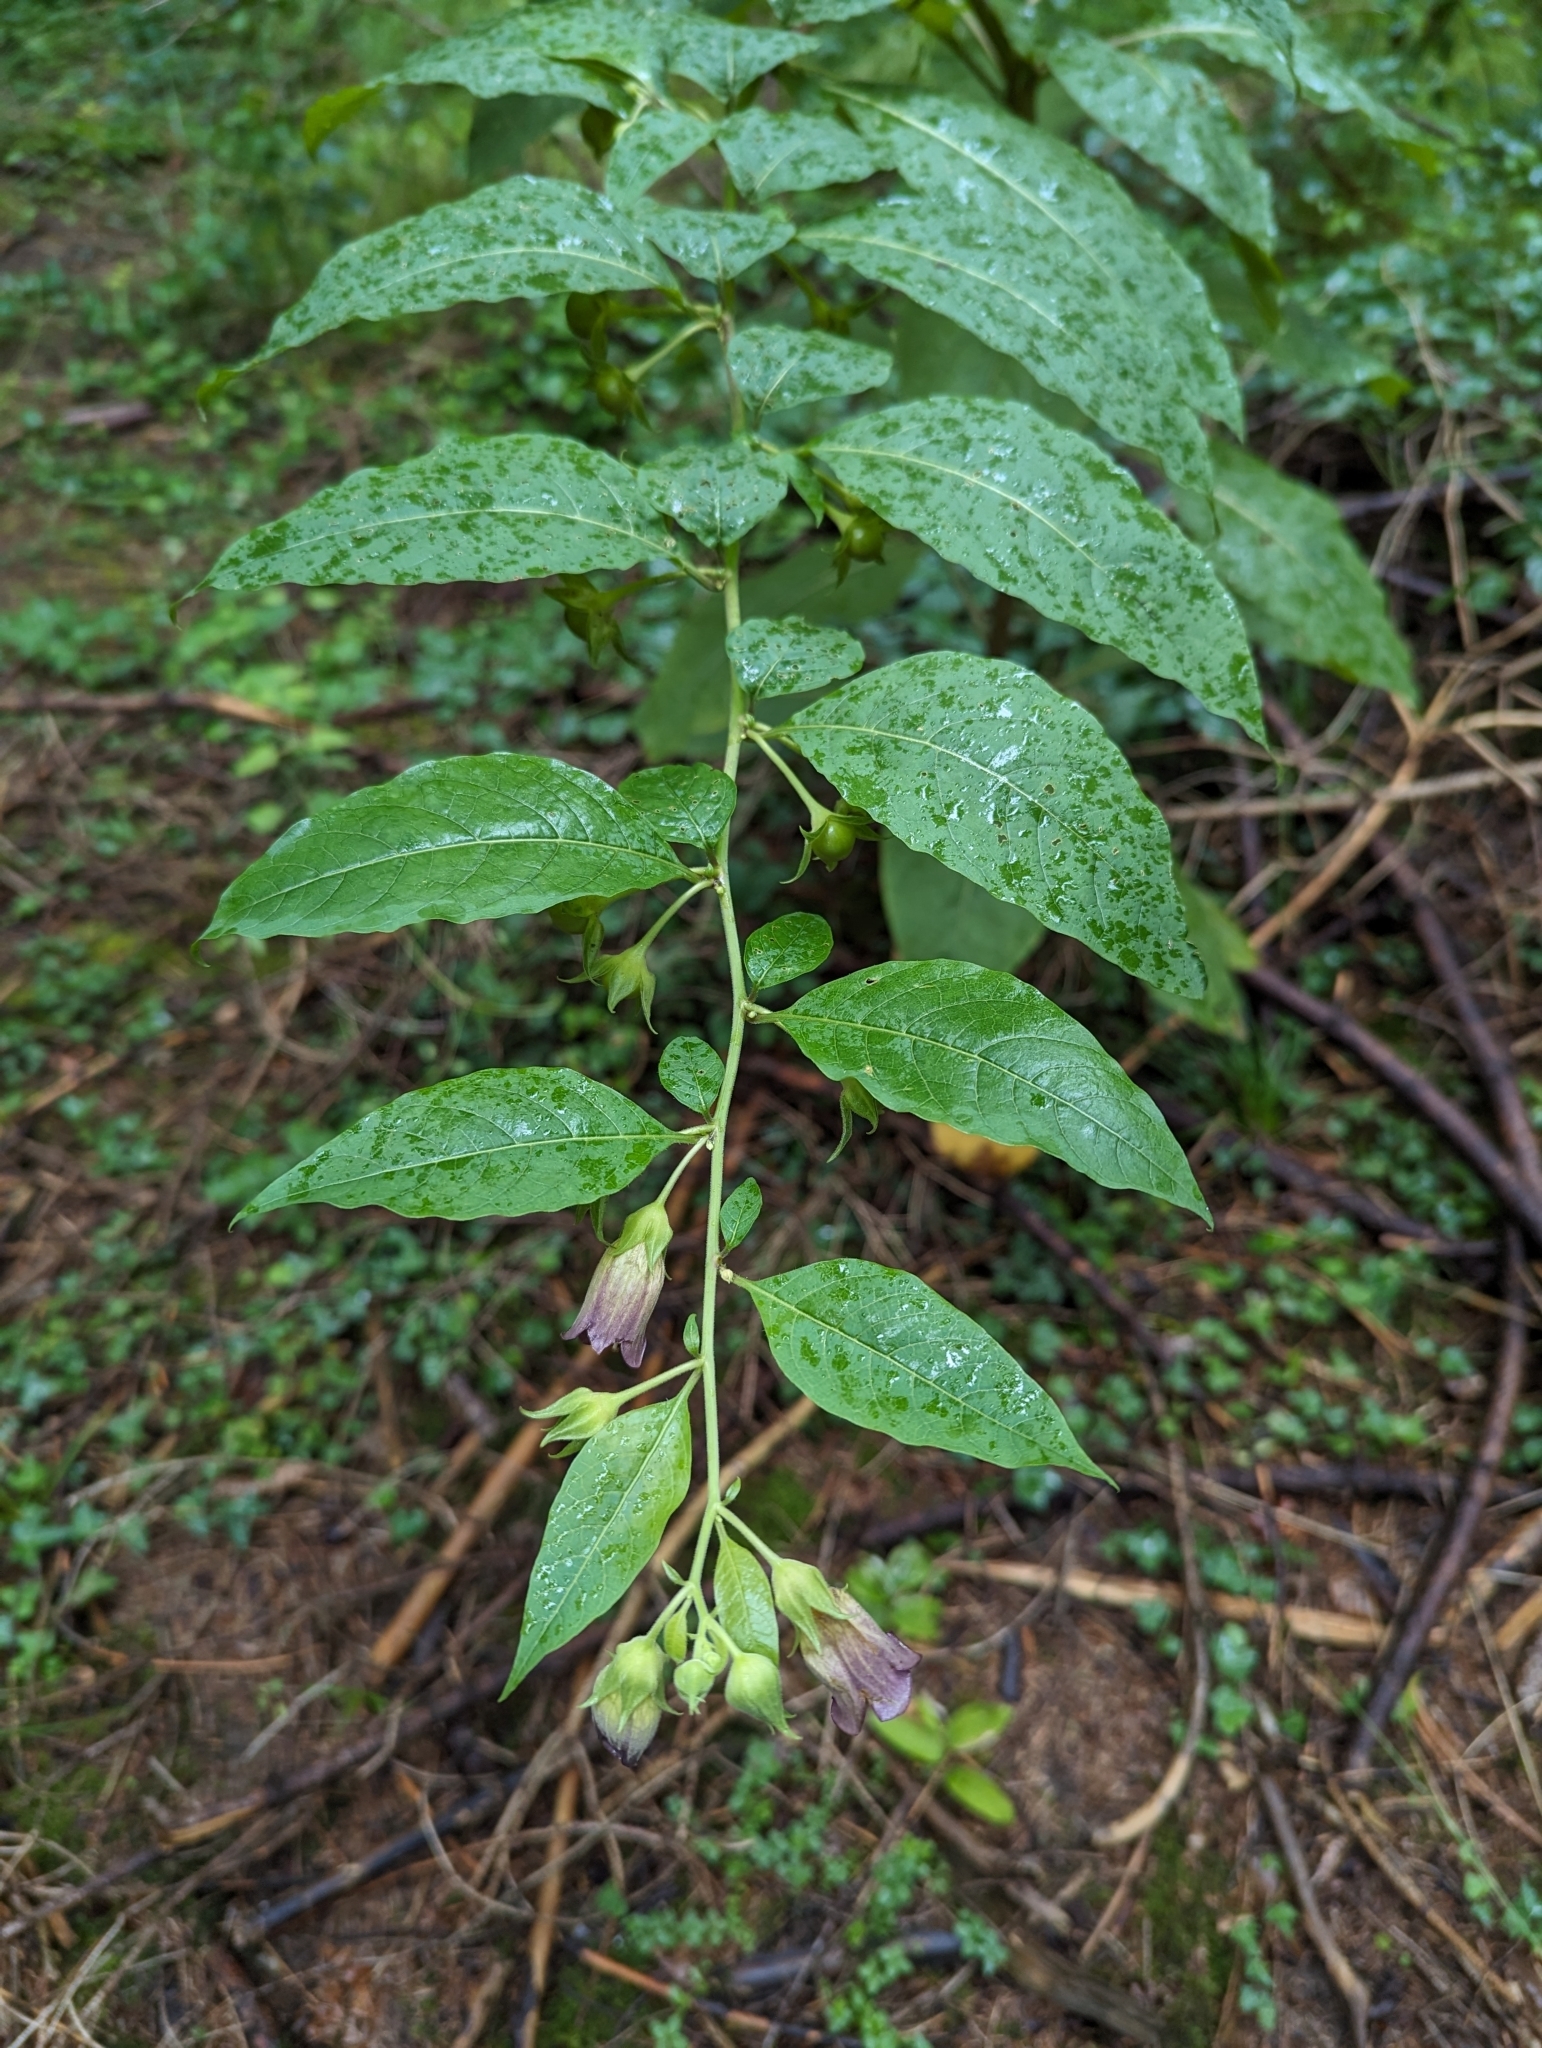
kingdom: Plantae
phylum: Tracheophyta
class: Magnoliopsida
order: Solanales
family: Solanaceae
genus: Atropa
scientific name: Atropa belladonna
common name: Deadly nightshade
